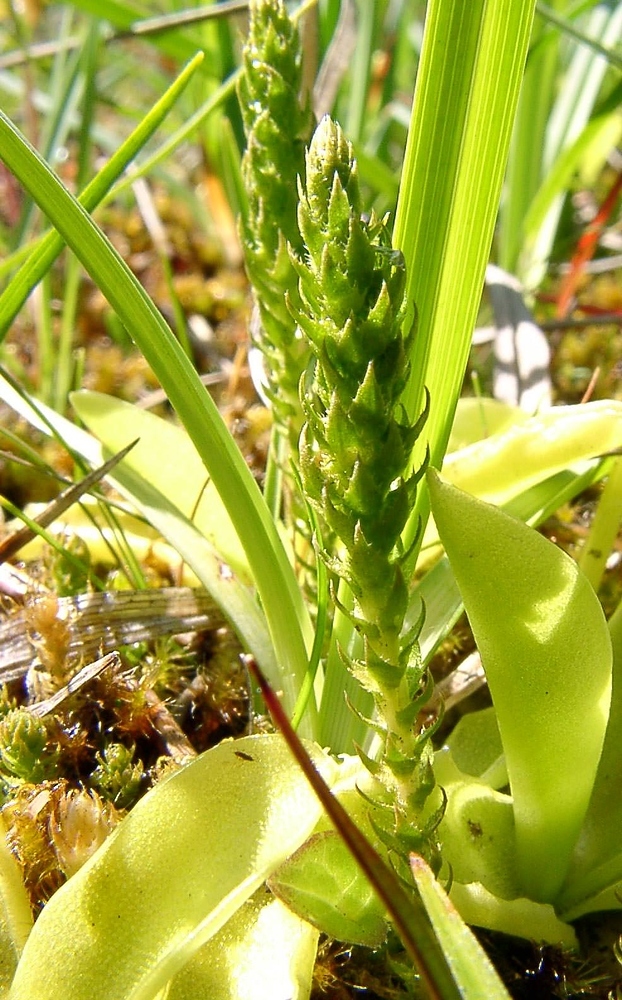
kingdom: Plantae
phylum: Tracheophyta
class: Lycopodiopsida
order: Selaginellales
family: Selaginellaceae
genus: Selaginella
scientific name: Selaginella selaginoides
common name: Prickly mountain-moss
